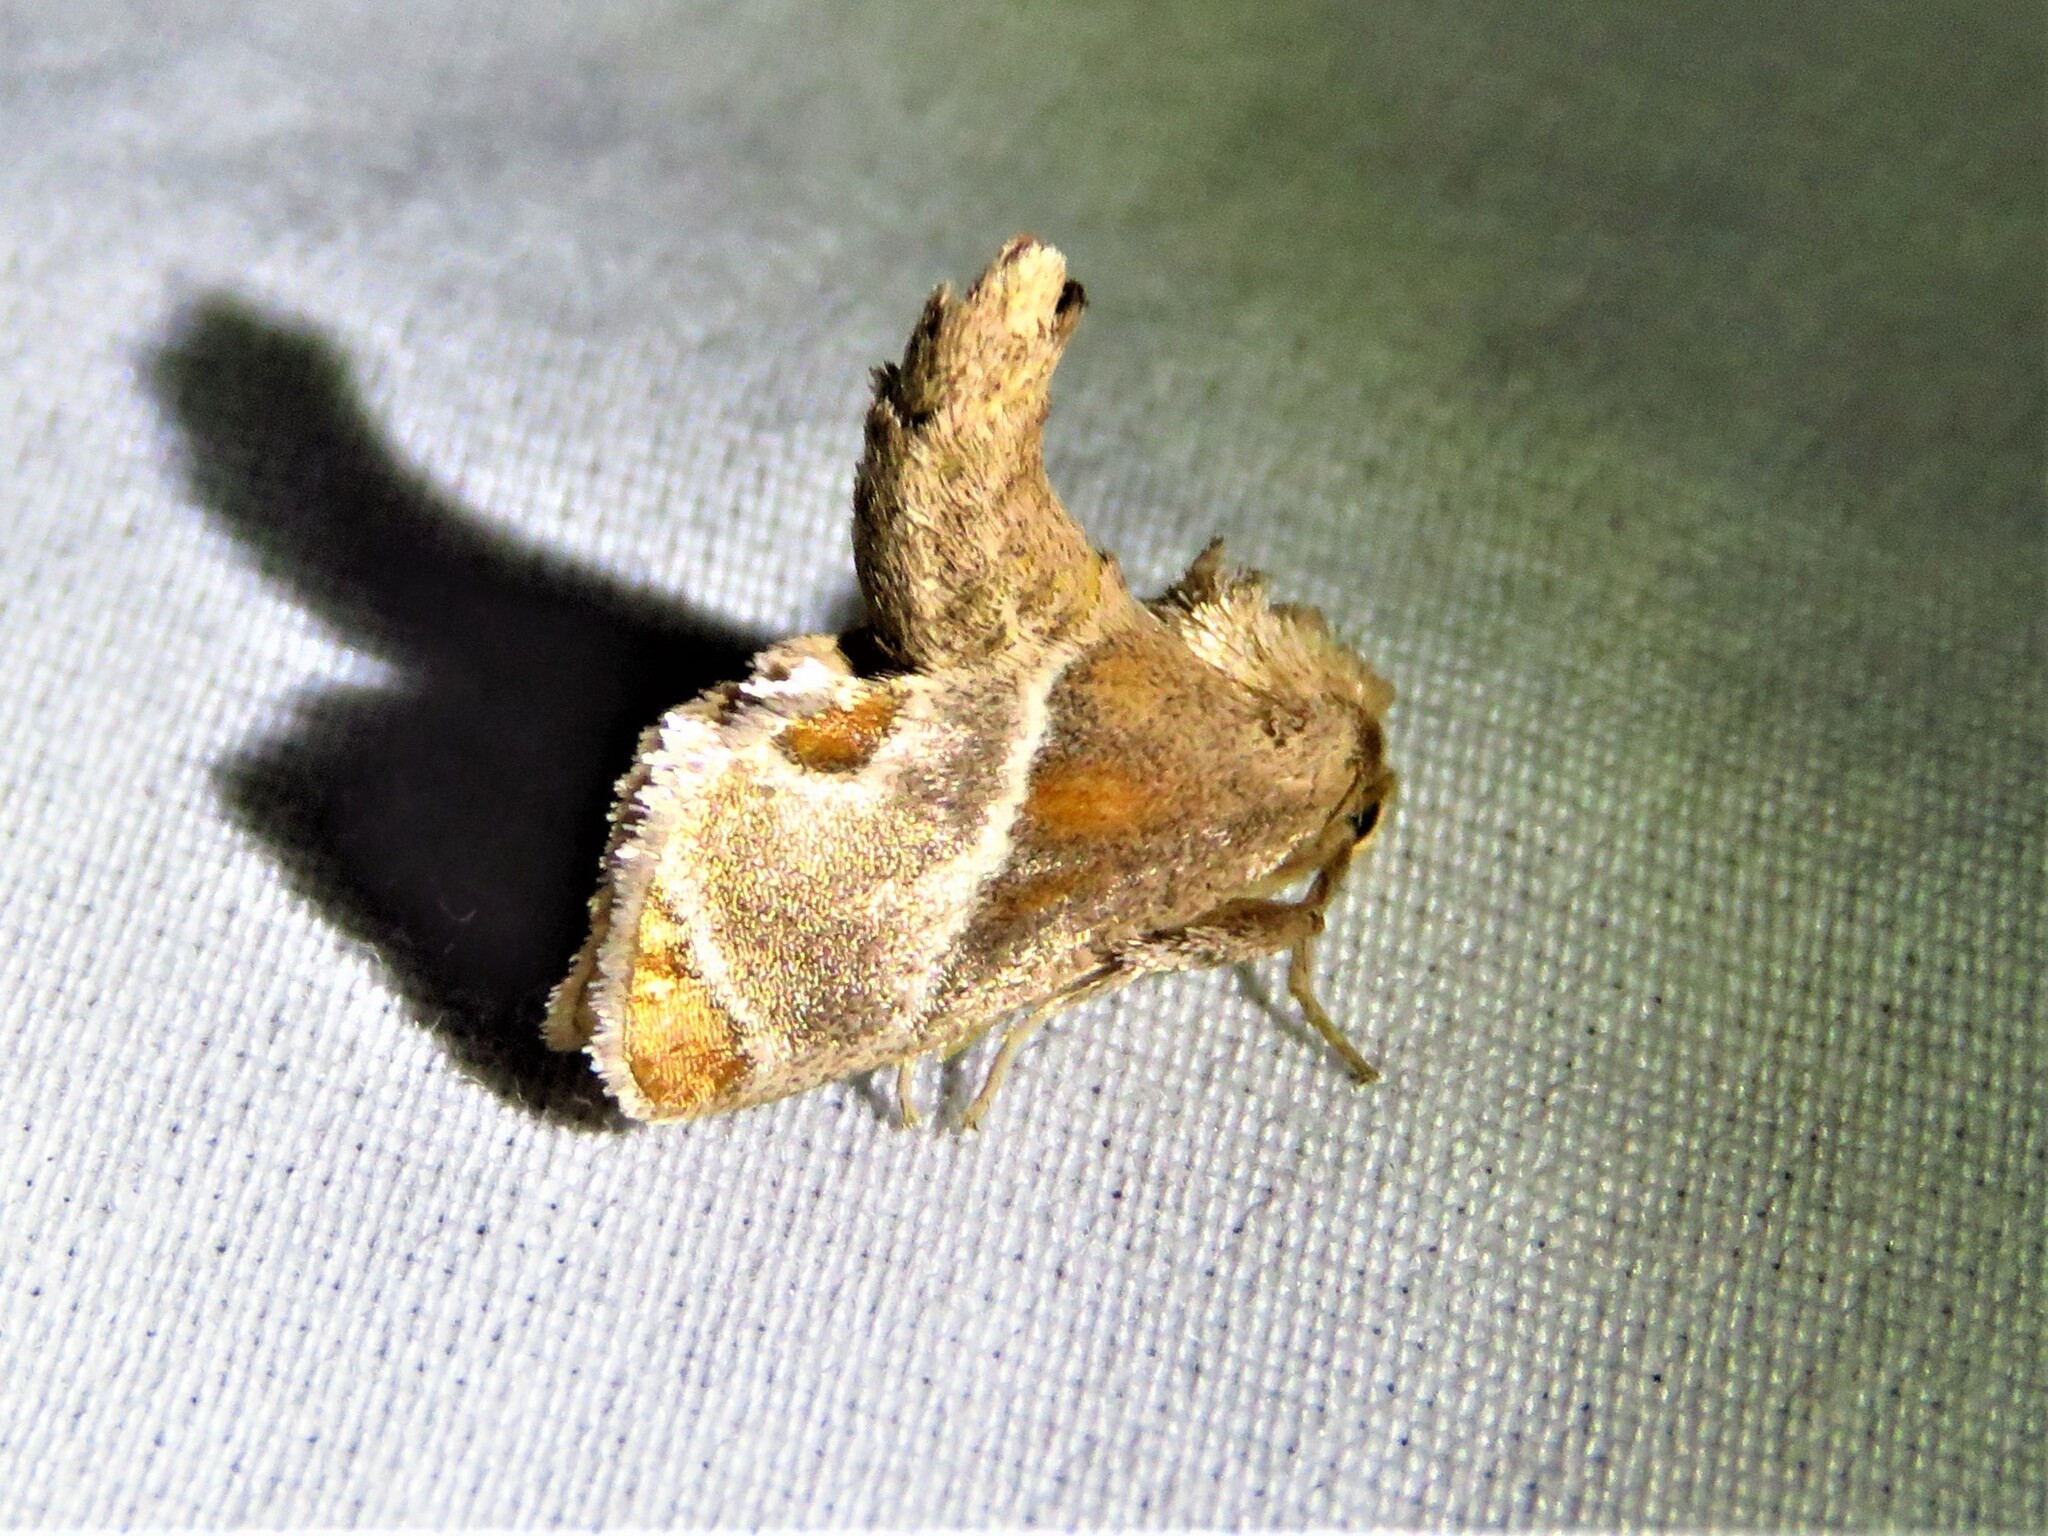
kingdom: Animalia
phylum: Arthropoda
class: Insecta
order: Lepidoptera
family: Limacodidae
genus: Apoda
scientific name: Apoda biguttata
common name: Shagreened slug moth
